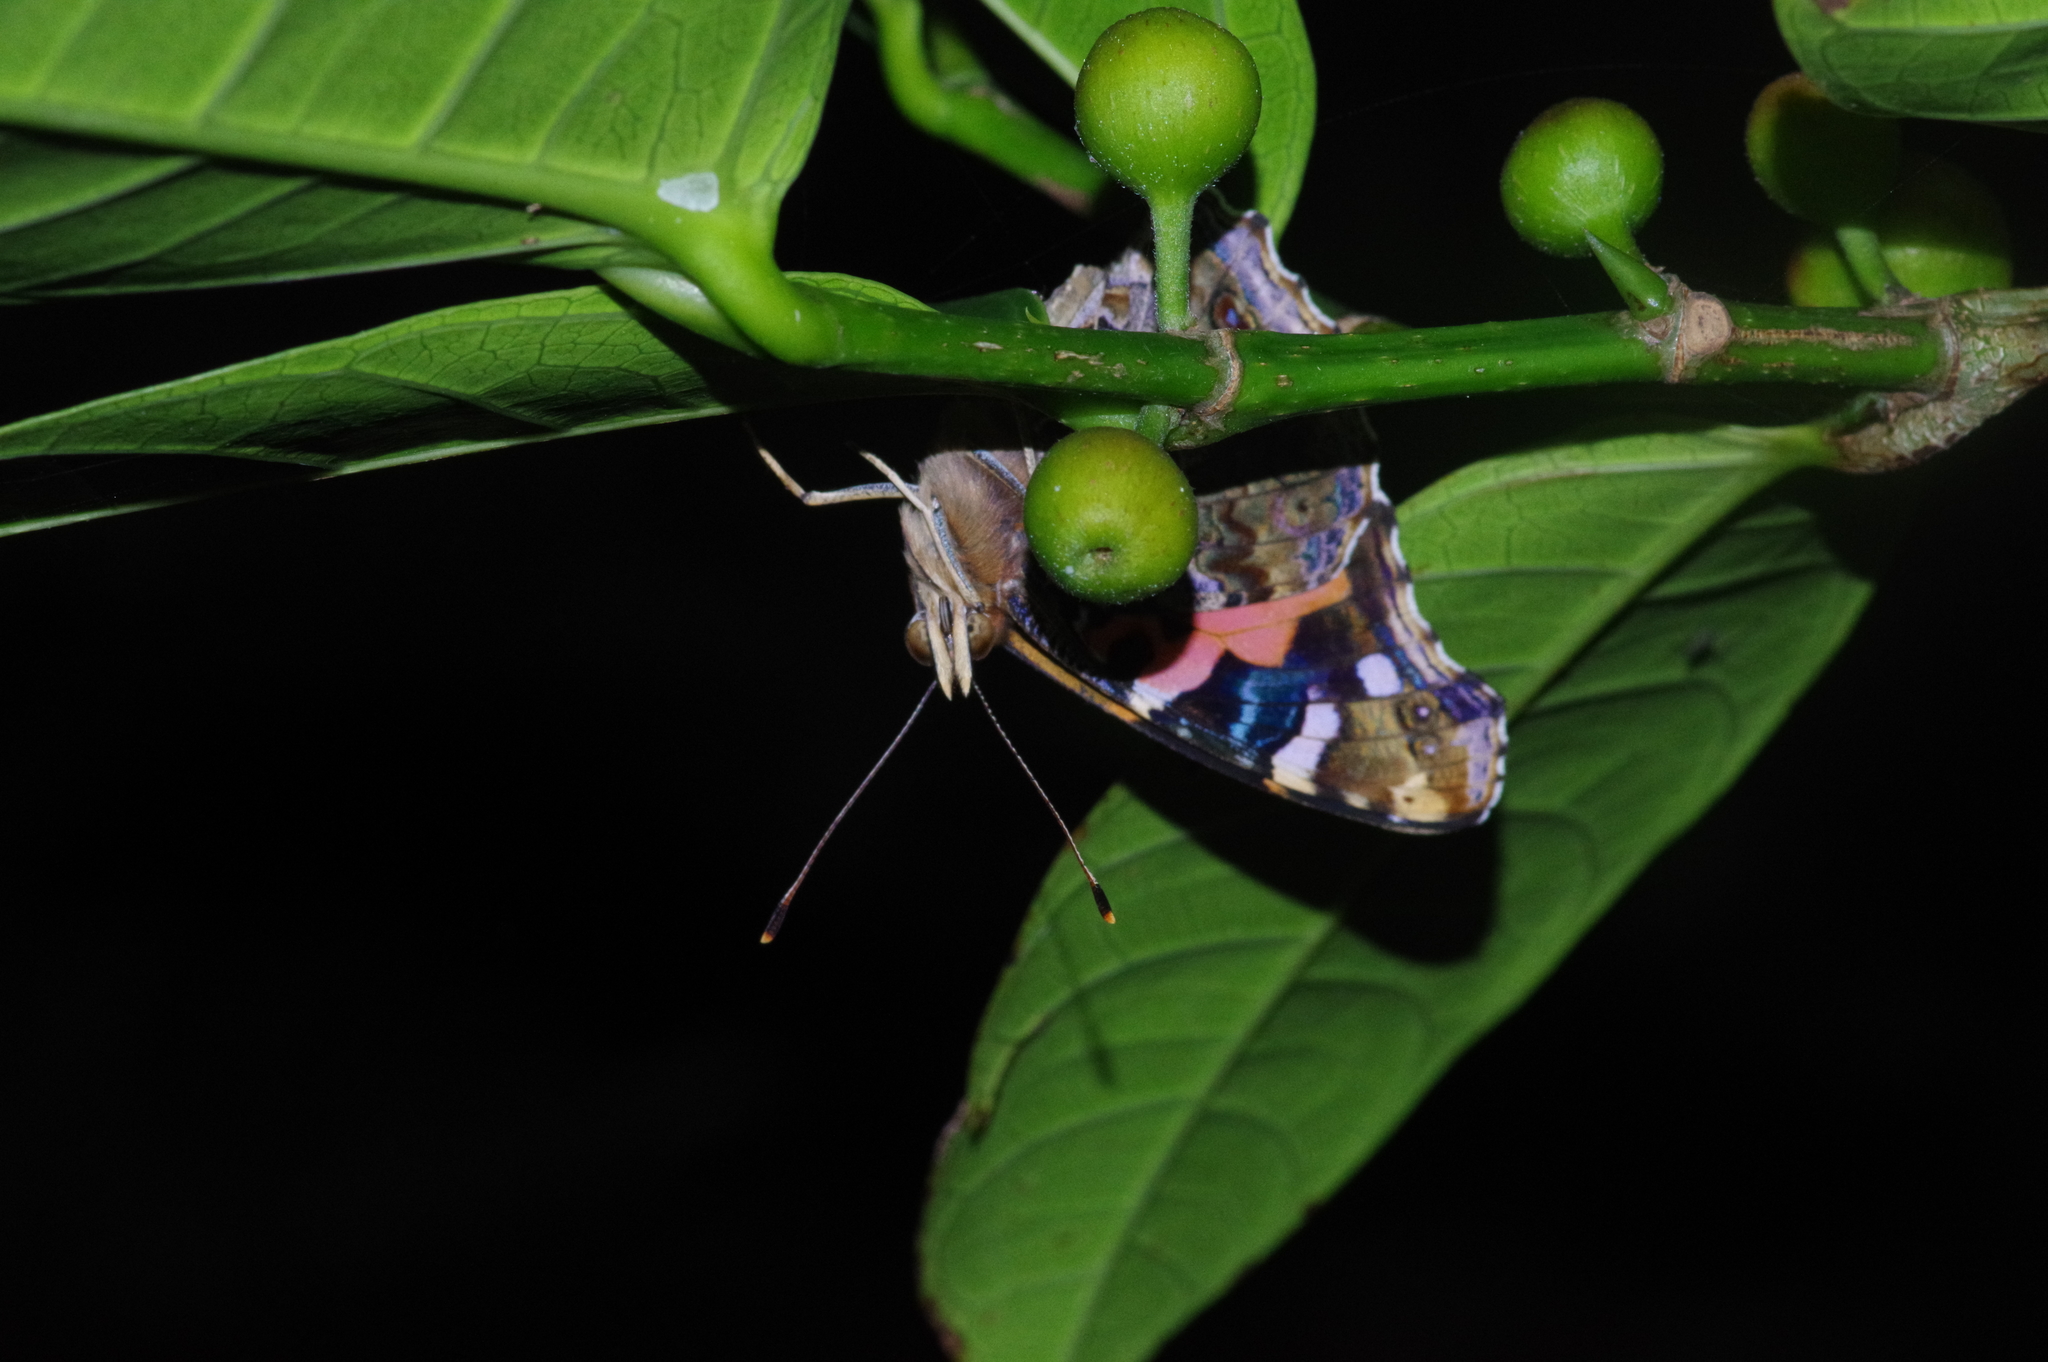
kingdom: Animalia
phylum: Arthropoda
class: Insecta
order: Lepidoptera
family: Nymphalidae
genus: Vanessa
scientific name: Vanessa indica
